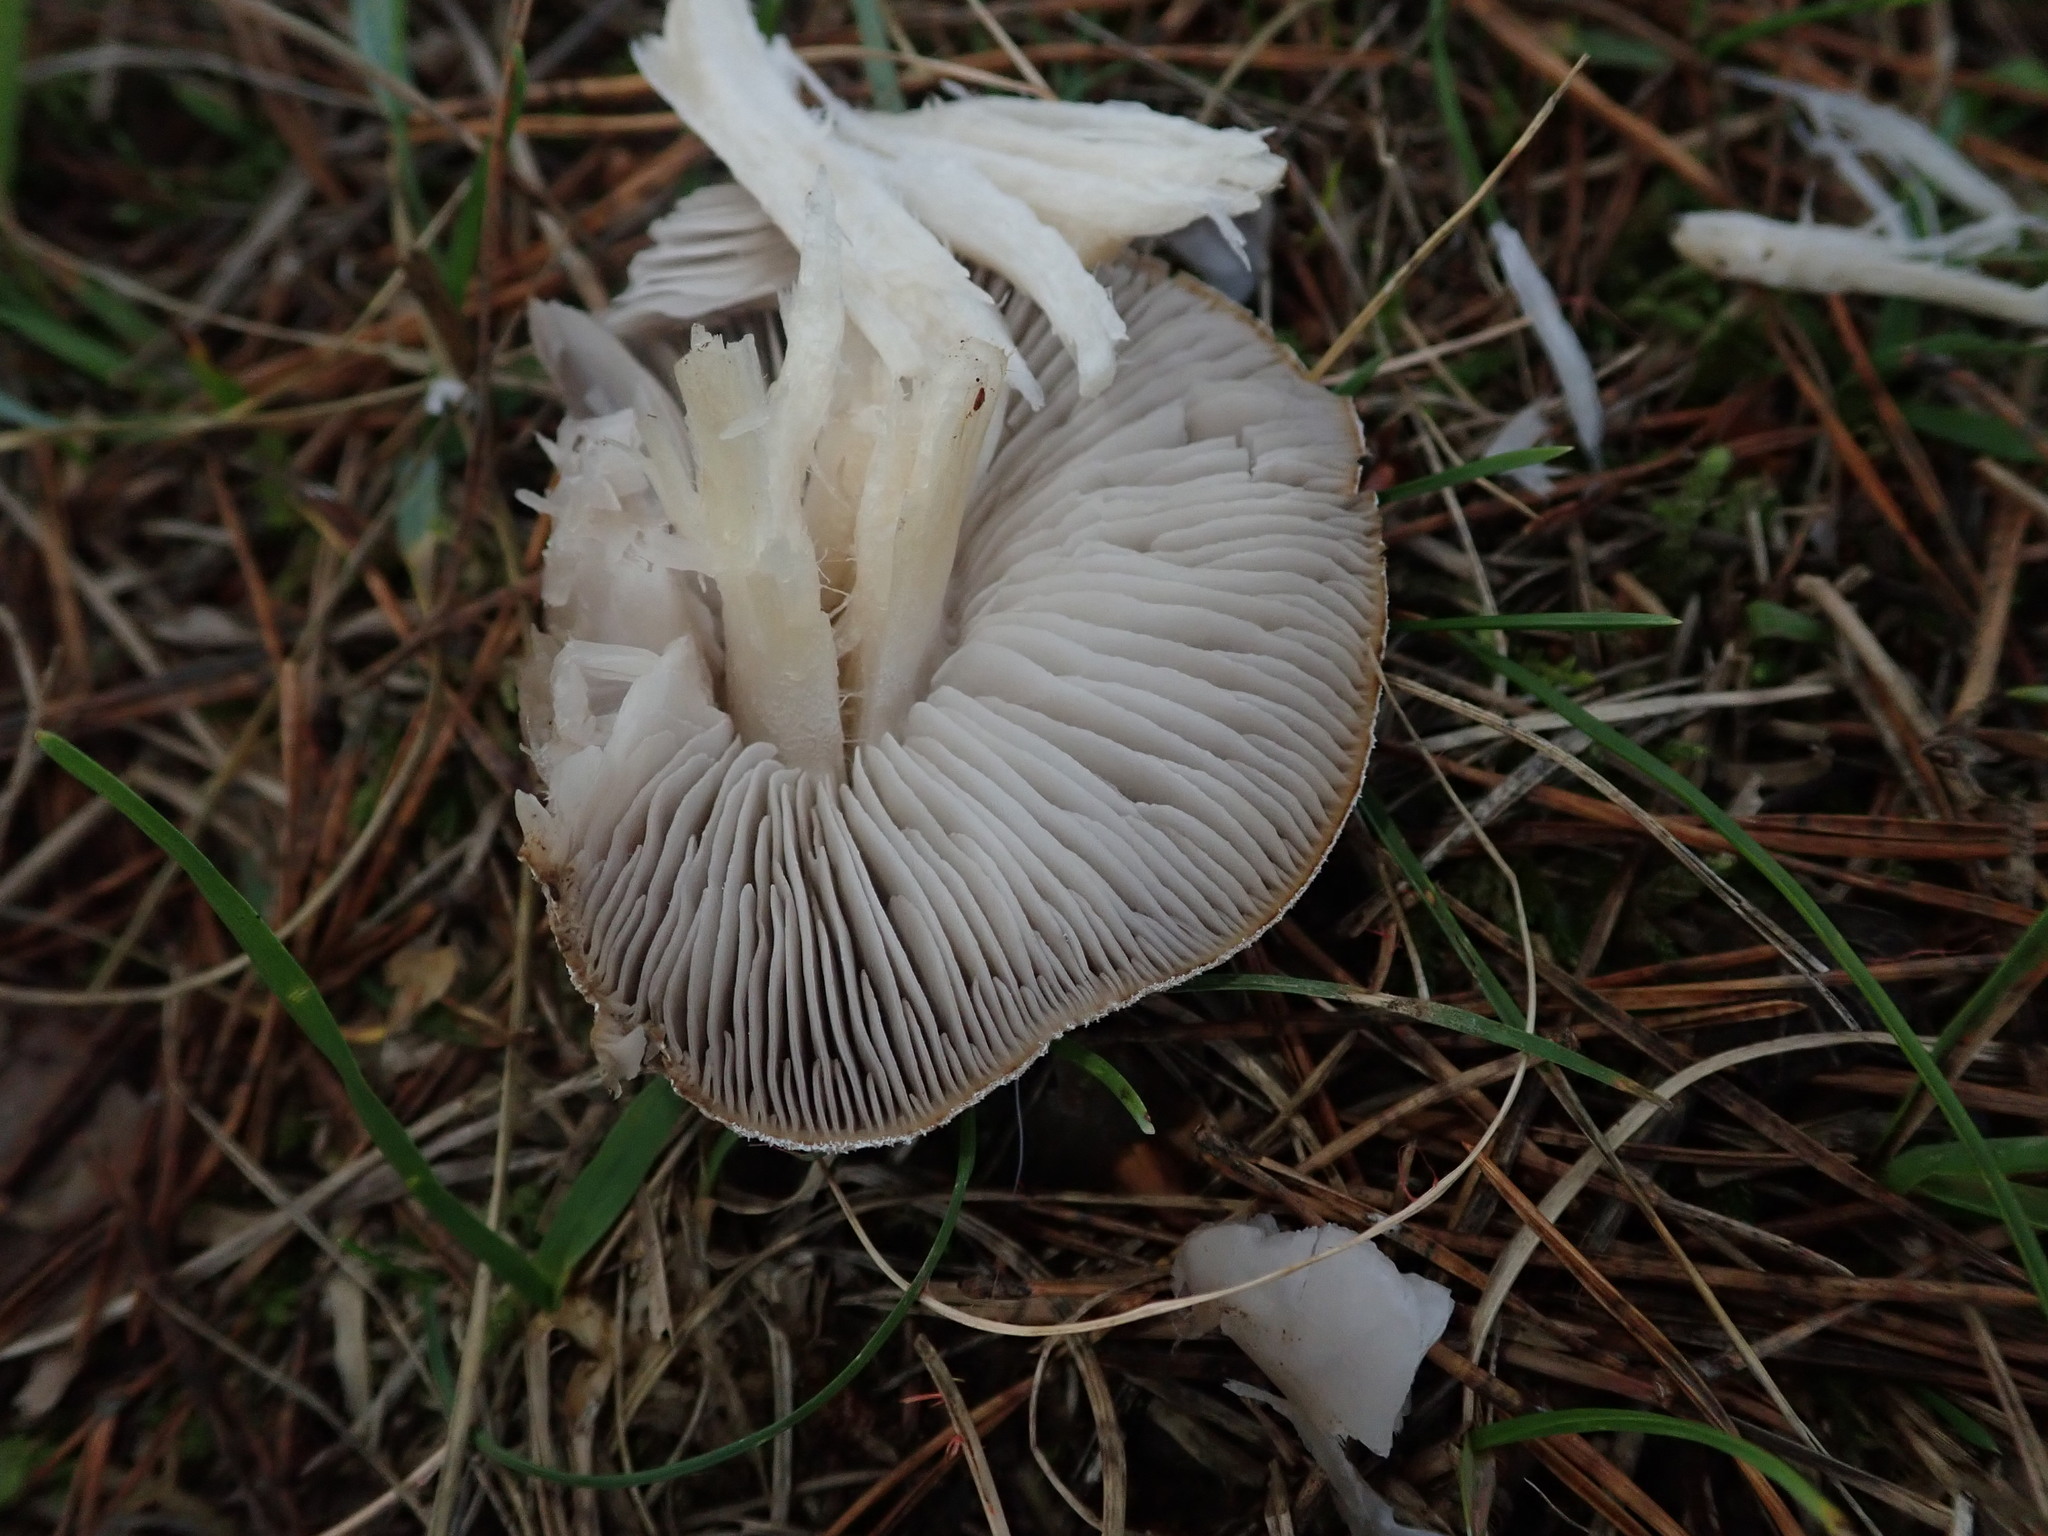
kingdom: Fungi
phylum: Basidiomycota
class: Agaricomycetes
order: Agaricales
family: Tricholomataceae
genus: Tricholoma
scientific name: Tricholoma terreum
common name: Grey knight
